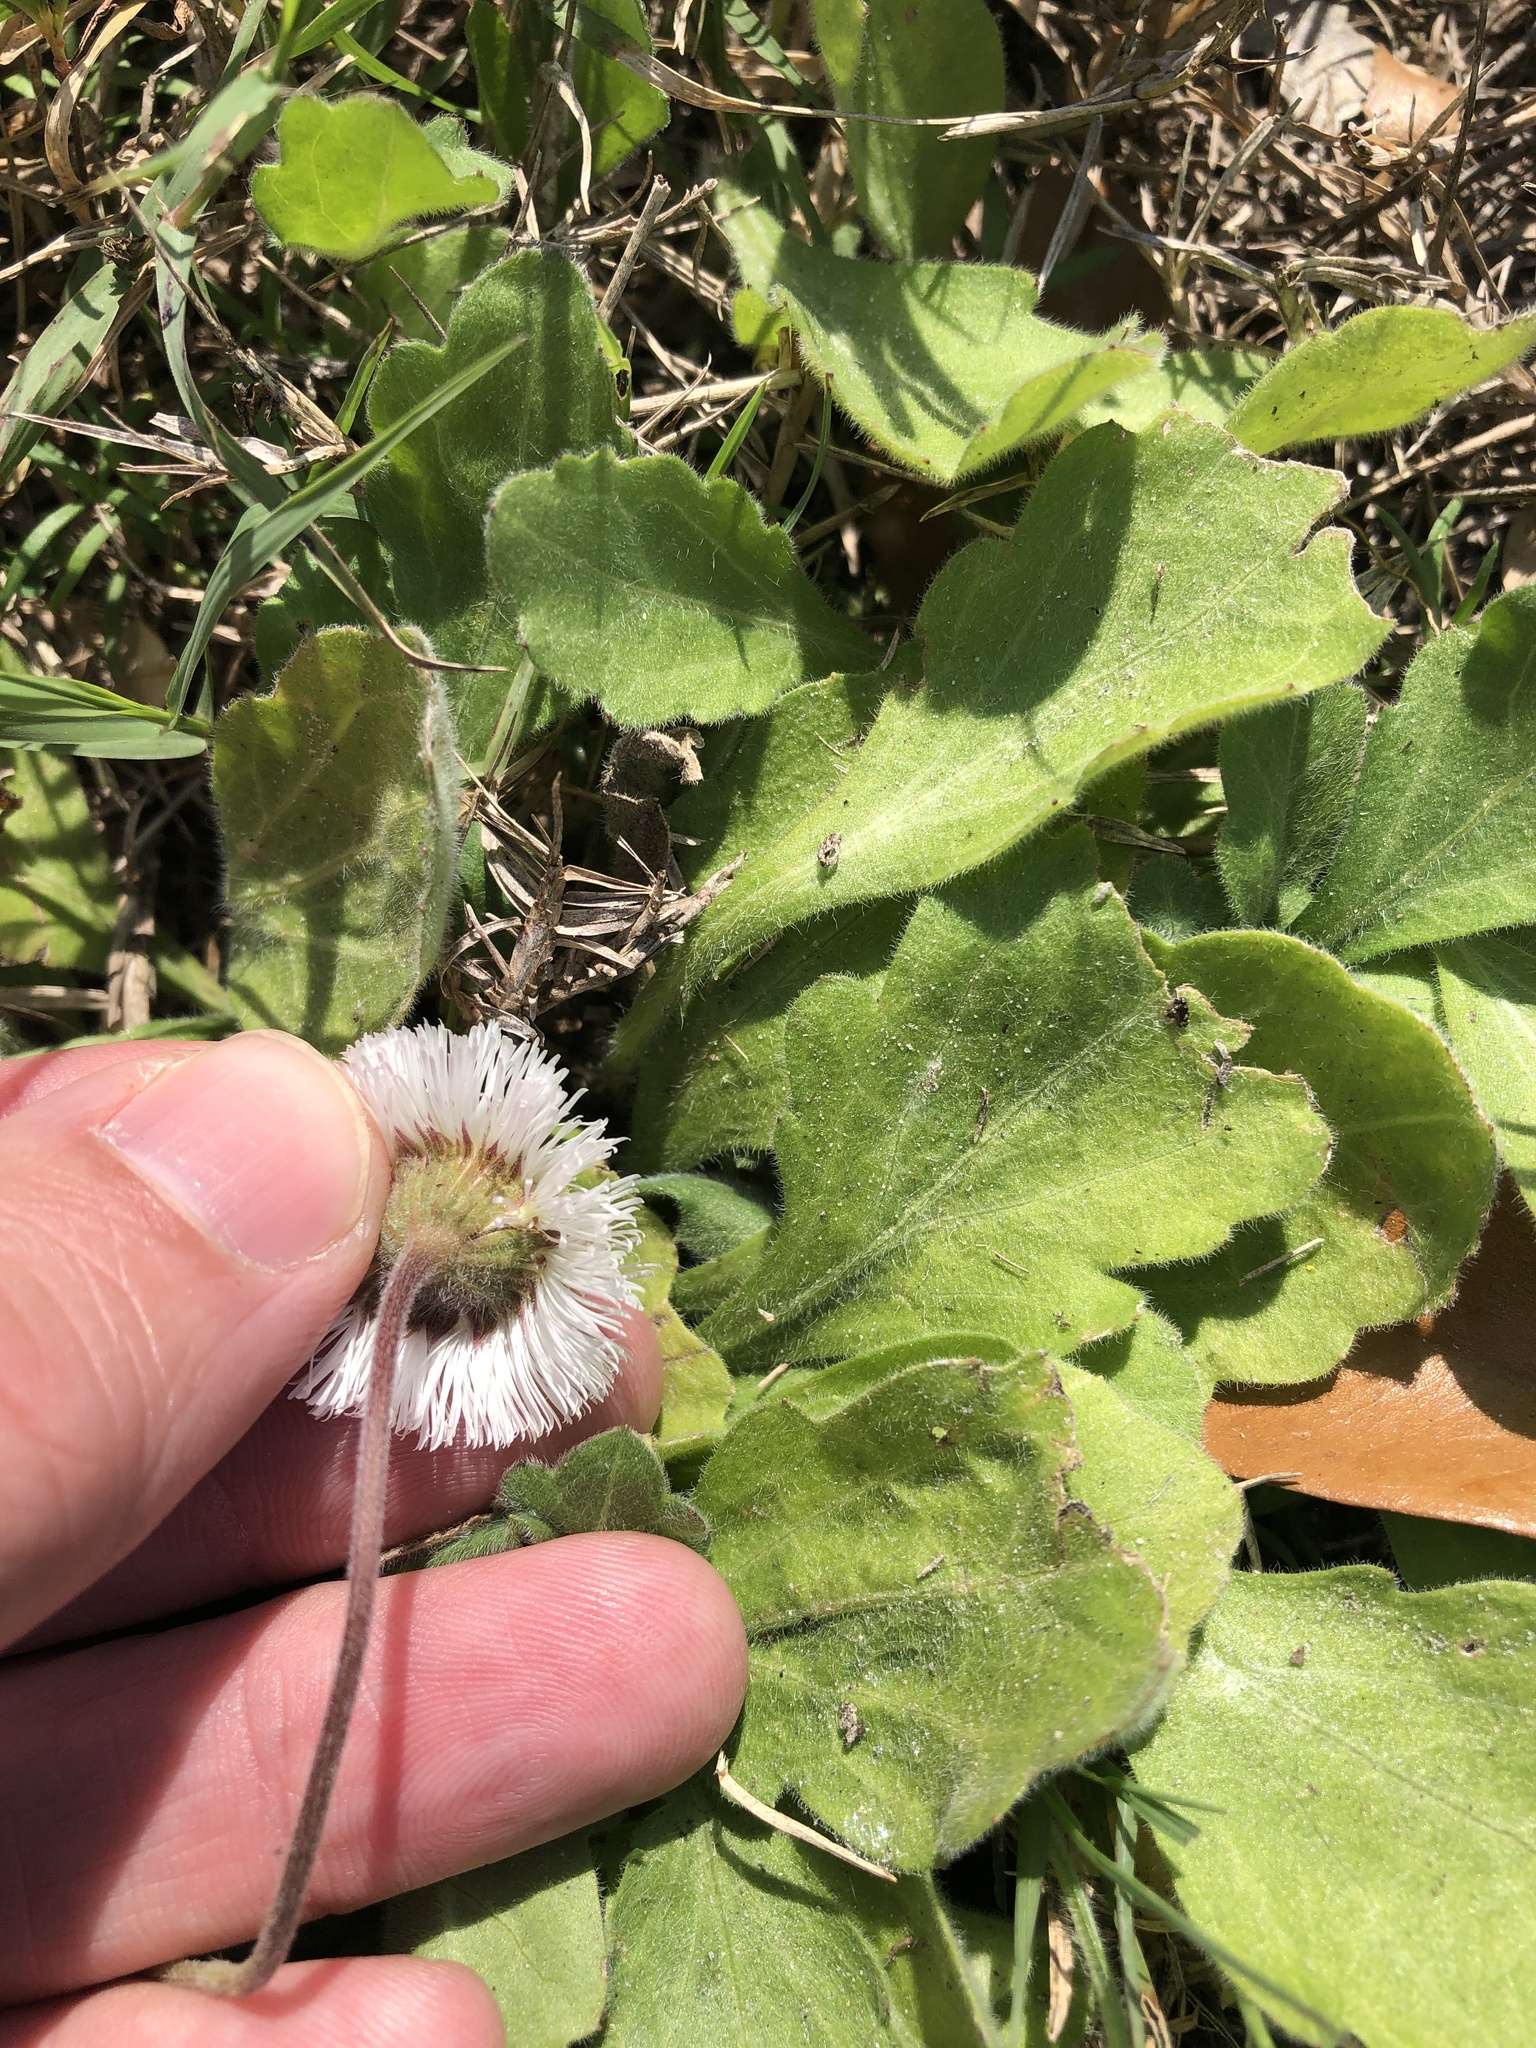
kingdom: Plantae
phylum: Tracheophyta
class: Magnoliopsida
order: Asterales
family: Asteraceae
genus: Erigeron
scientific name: Erigeron procumbens
